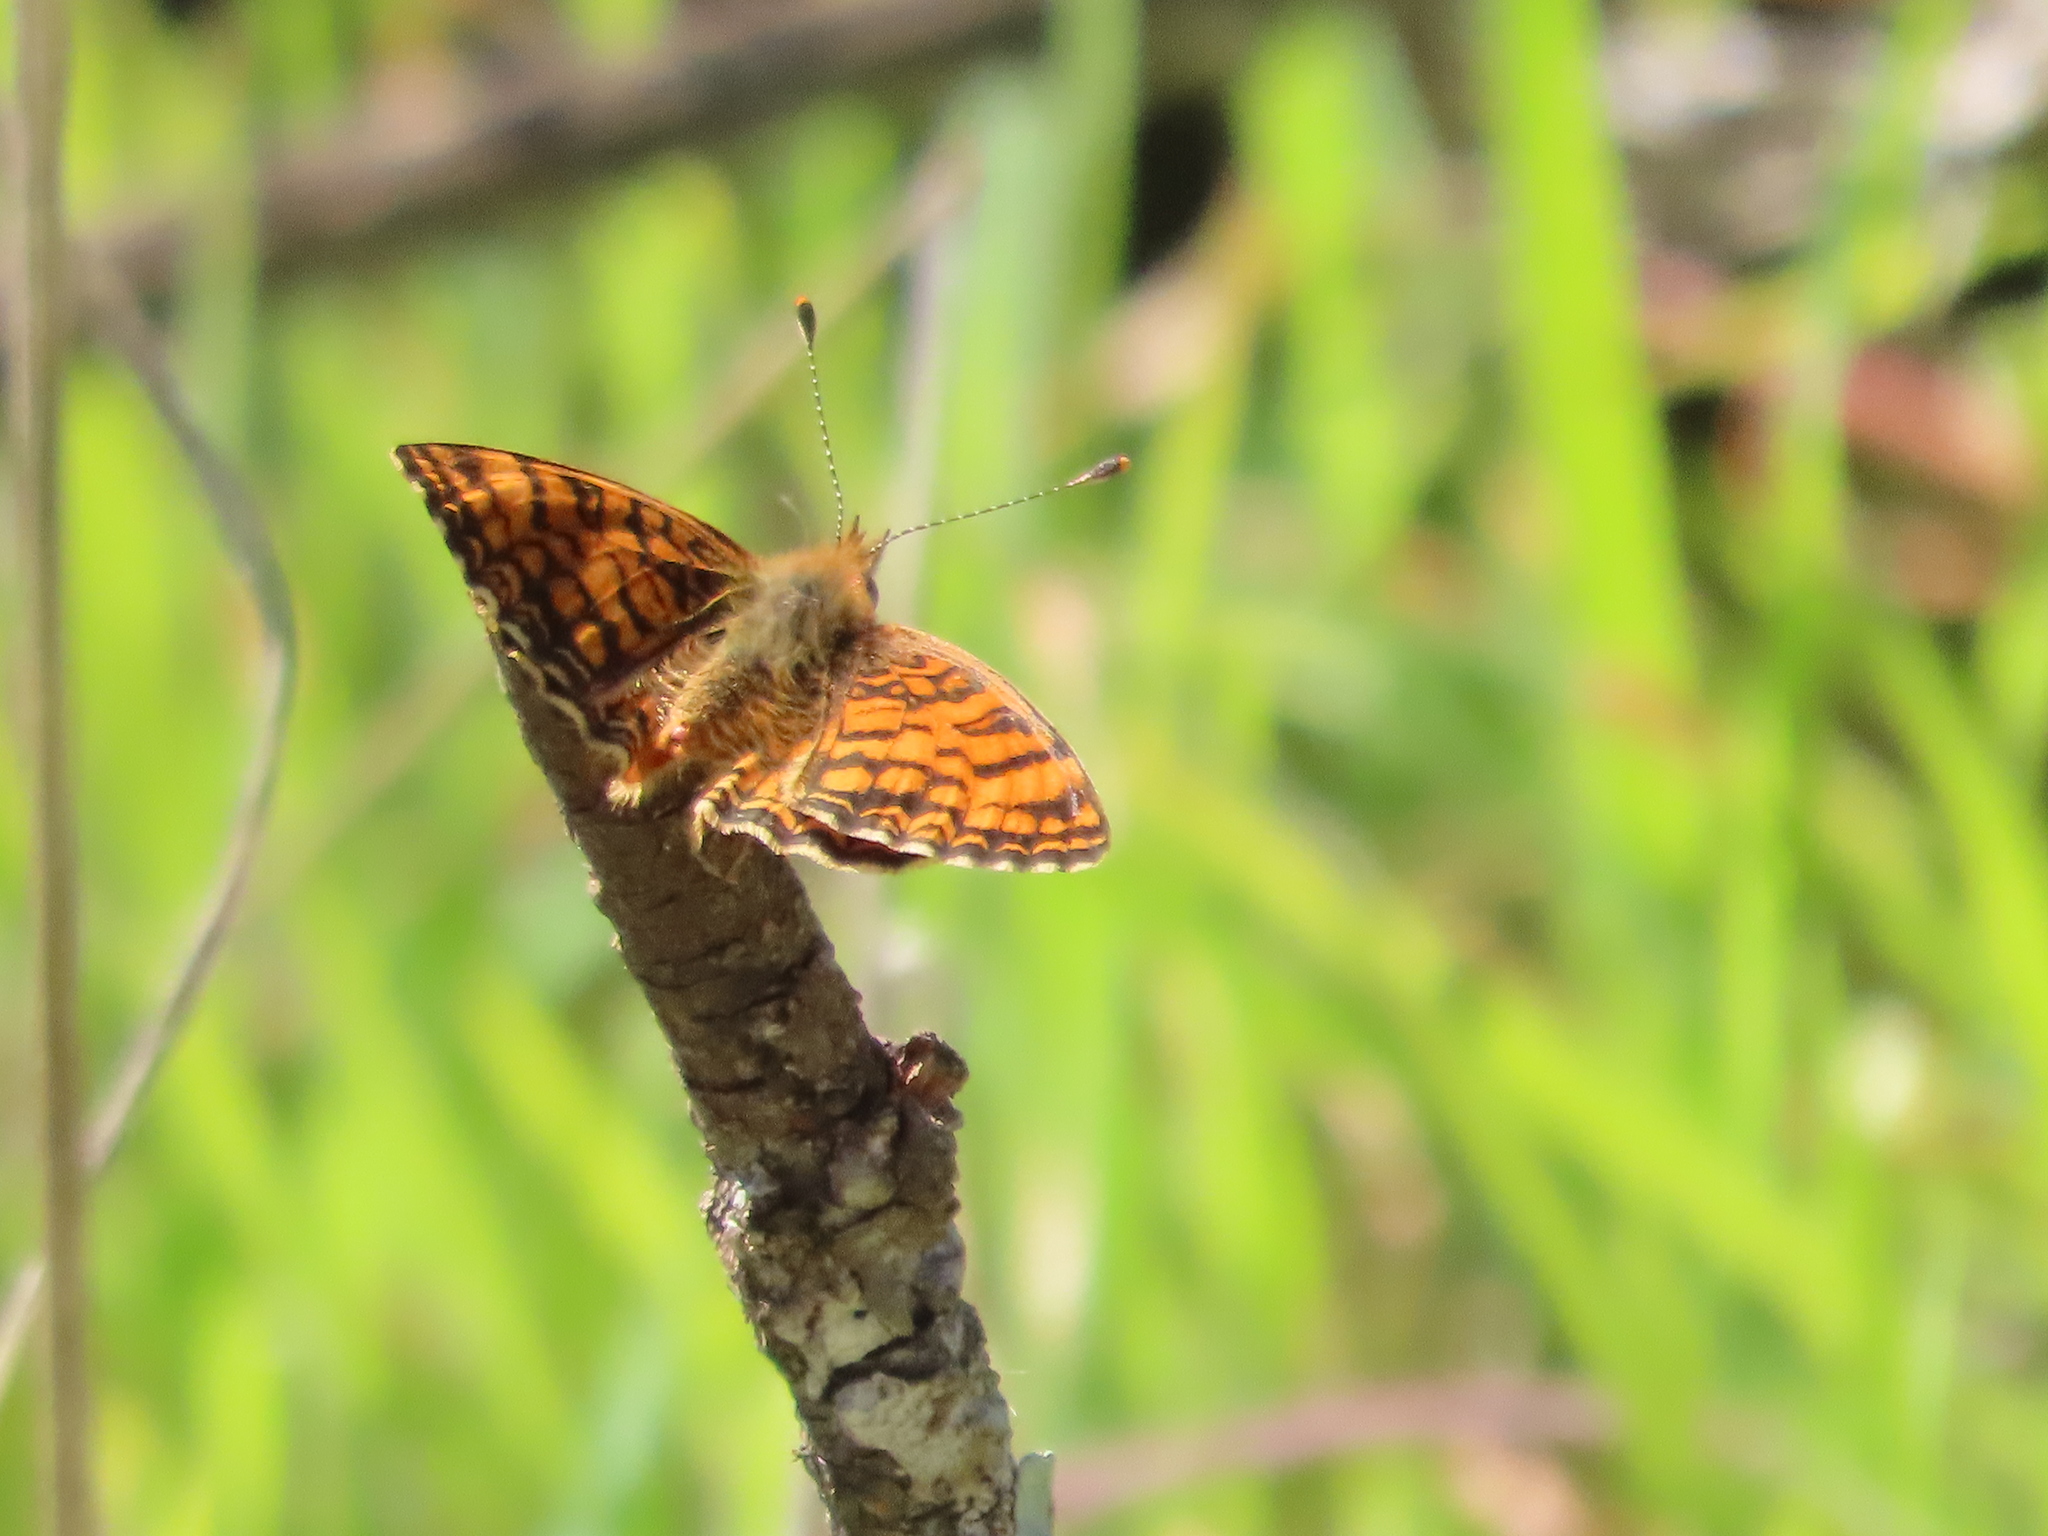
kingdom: Animalia
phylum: Arthropoda
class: Insecta
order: Lepidoptera
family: Nymphalidae
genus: Eresia
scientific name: Eresia aveyrona
